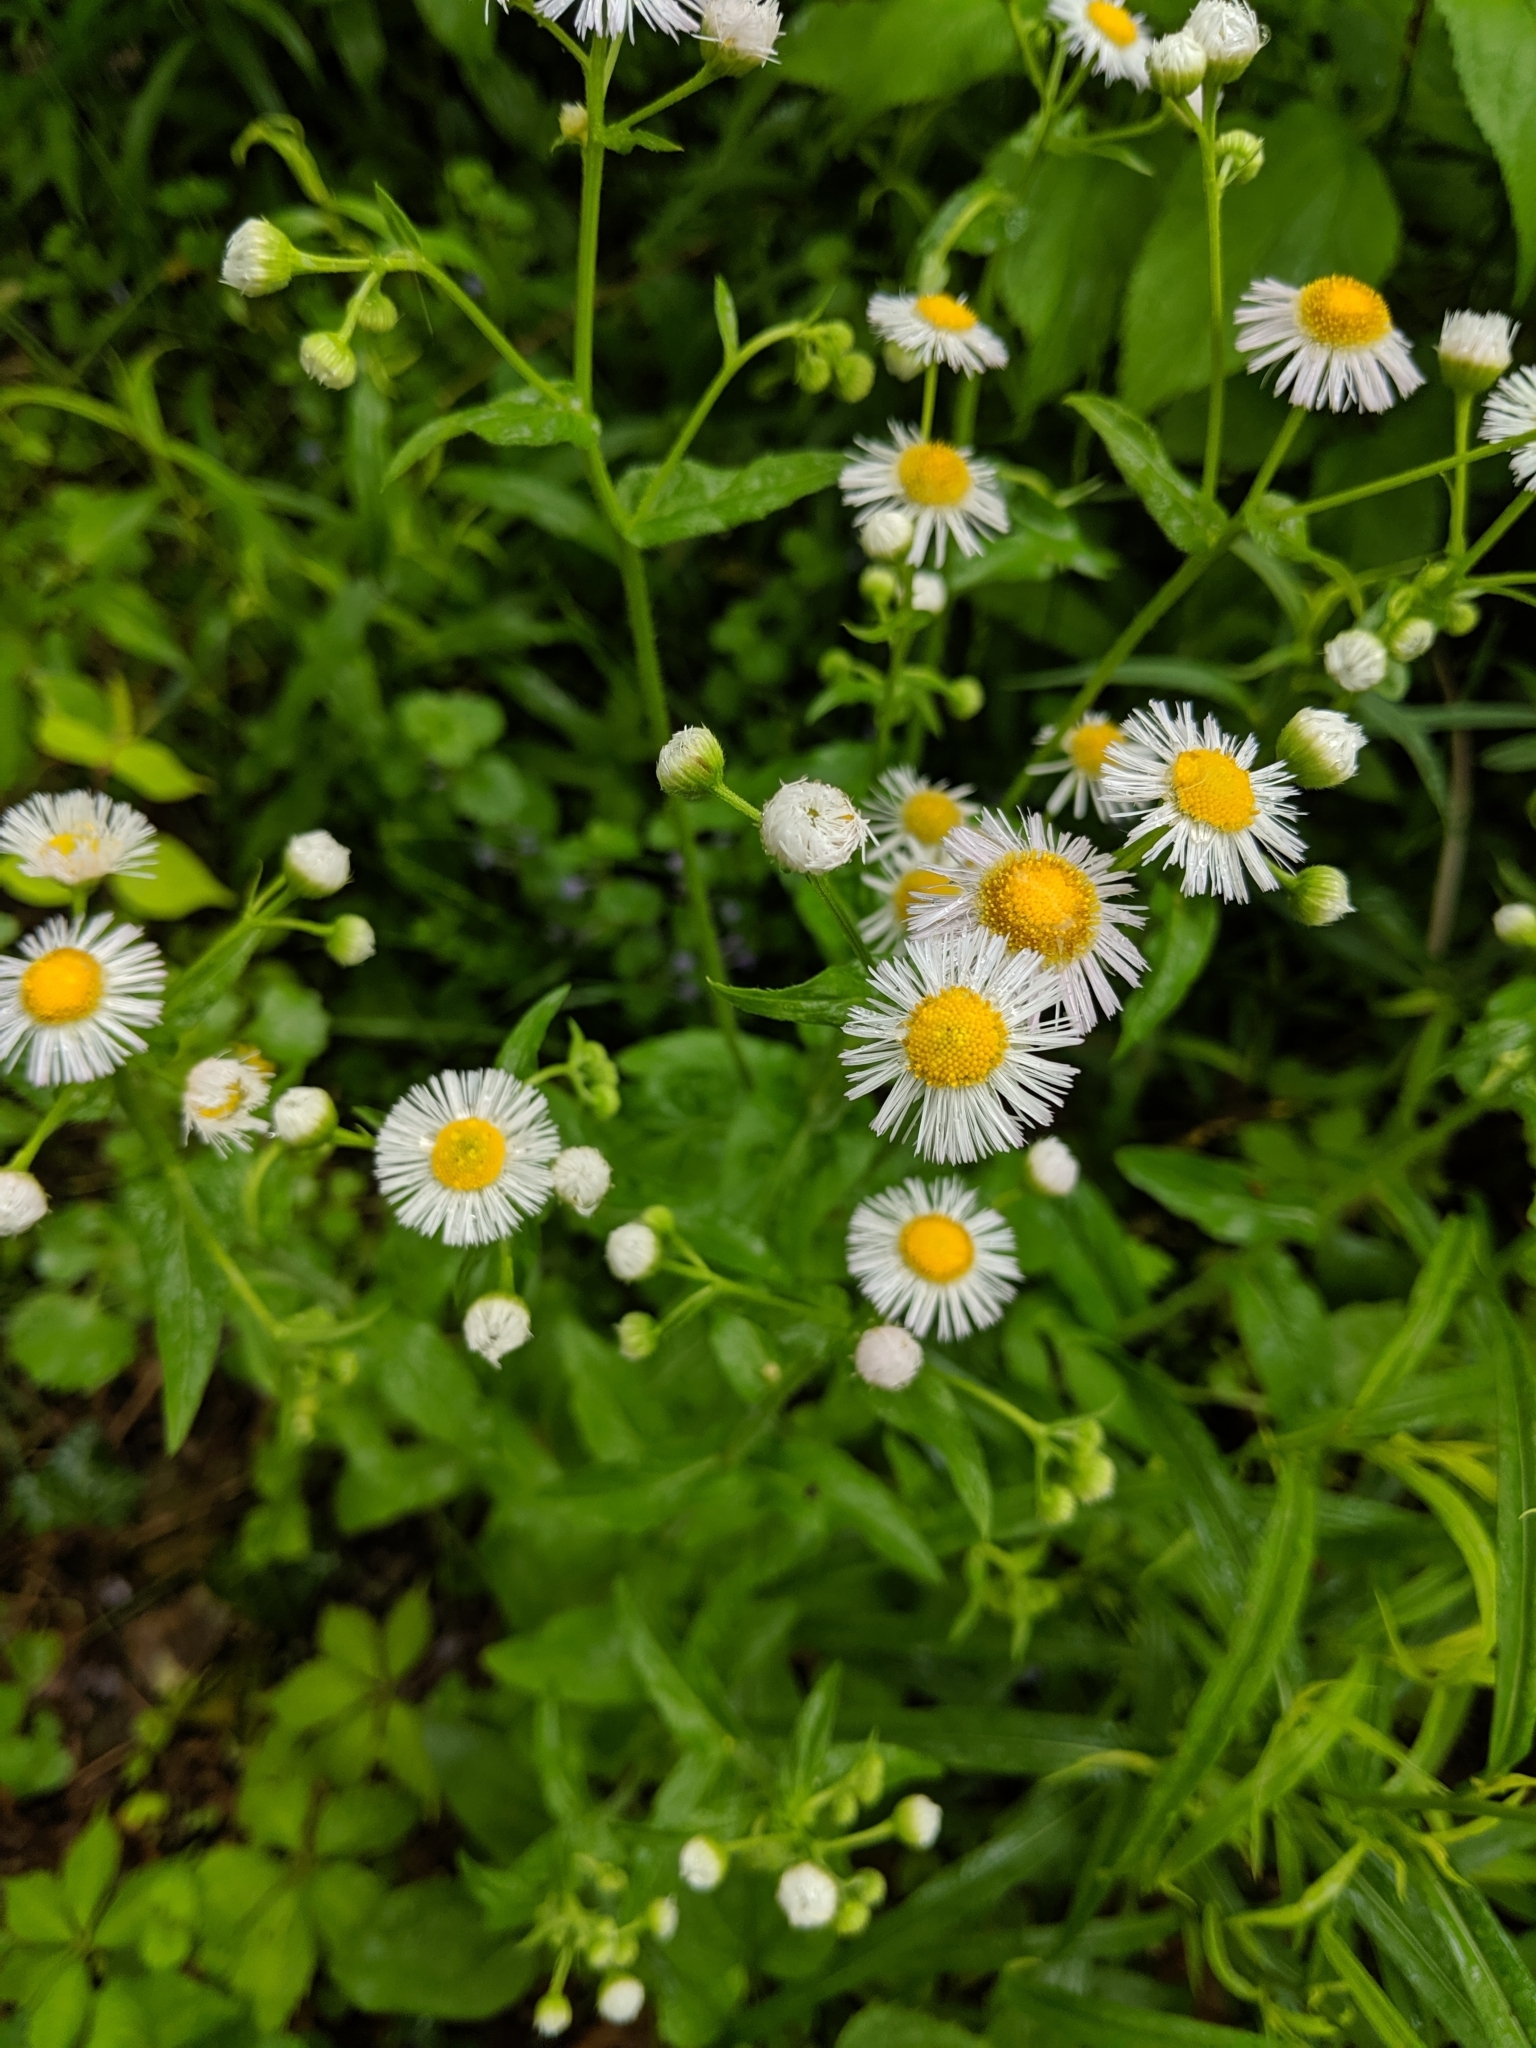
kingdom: Plantae
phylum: Tracheophyta
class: Magnoliopsida
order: Asterales
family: Asteraceae
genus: Erigeron
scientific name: Erigeron strigosus
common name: Common eastern fleabane
